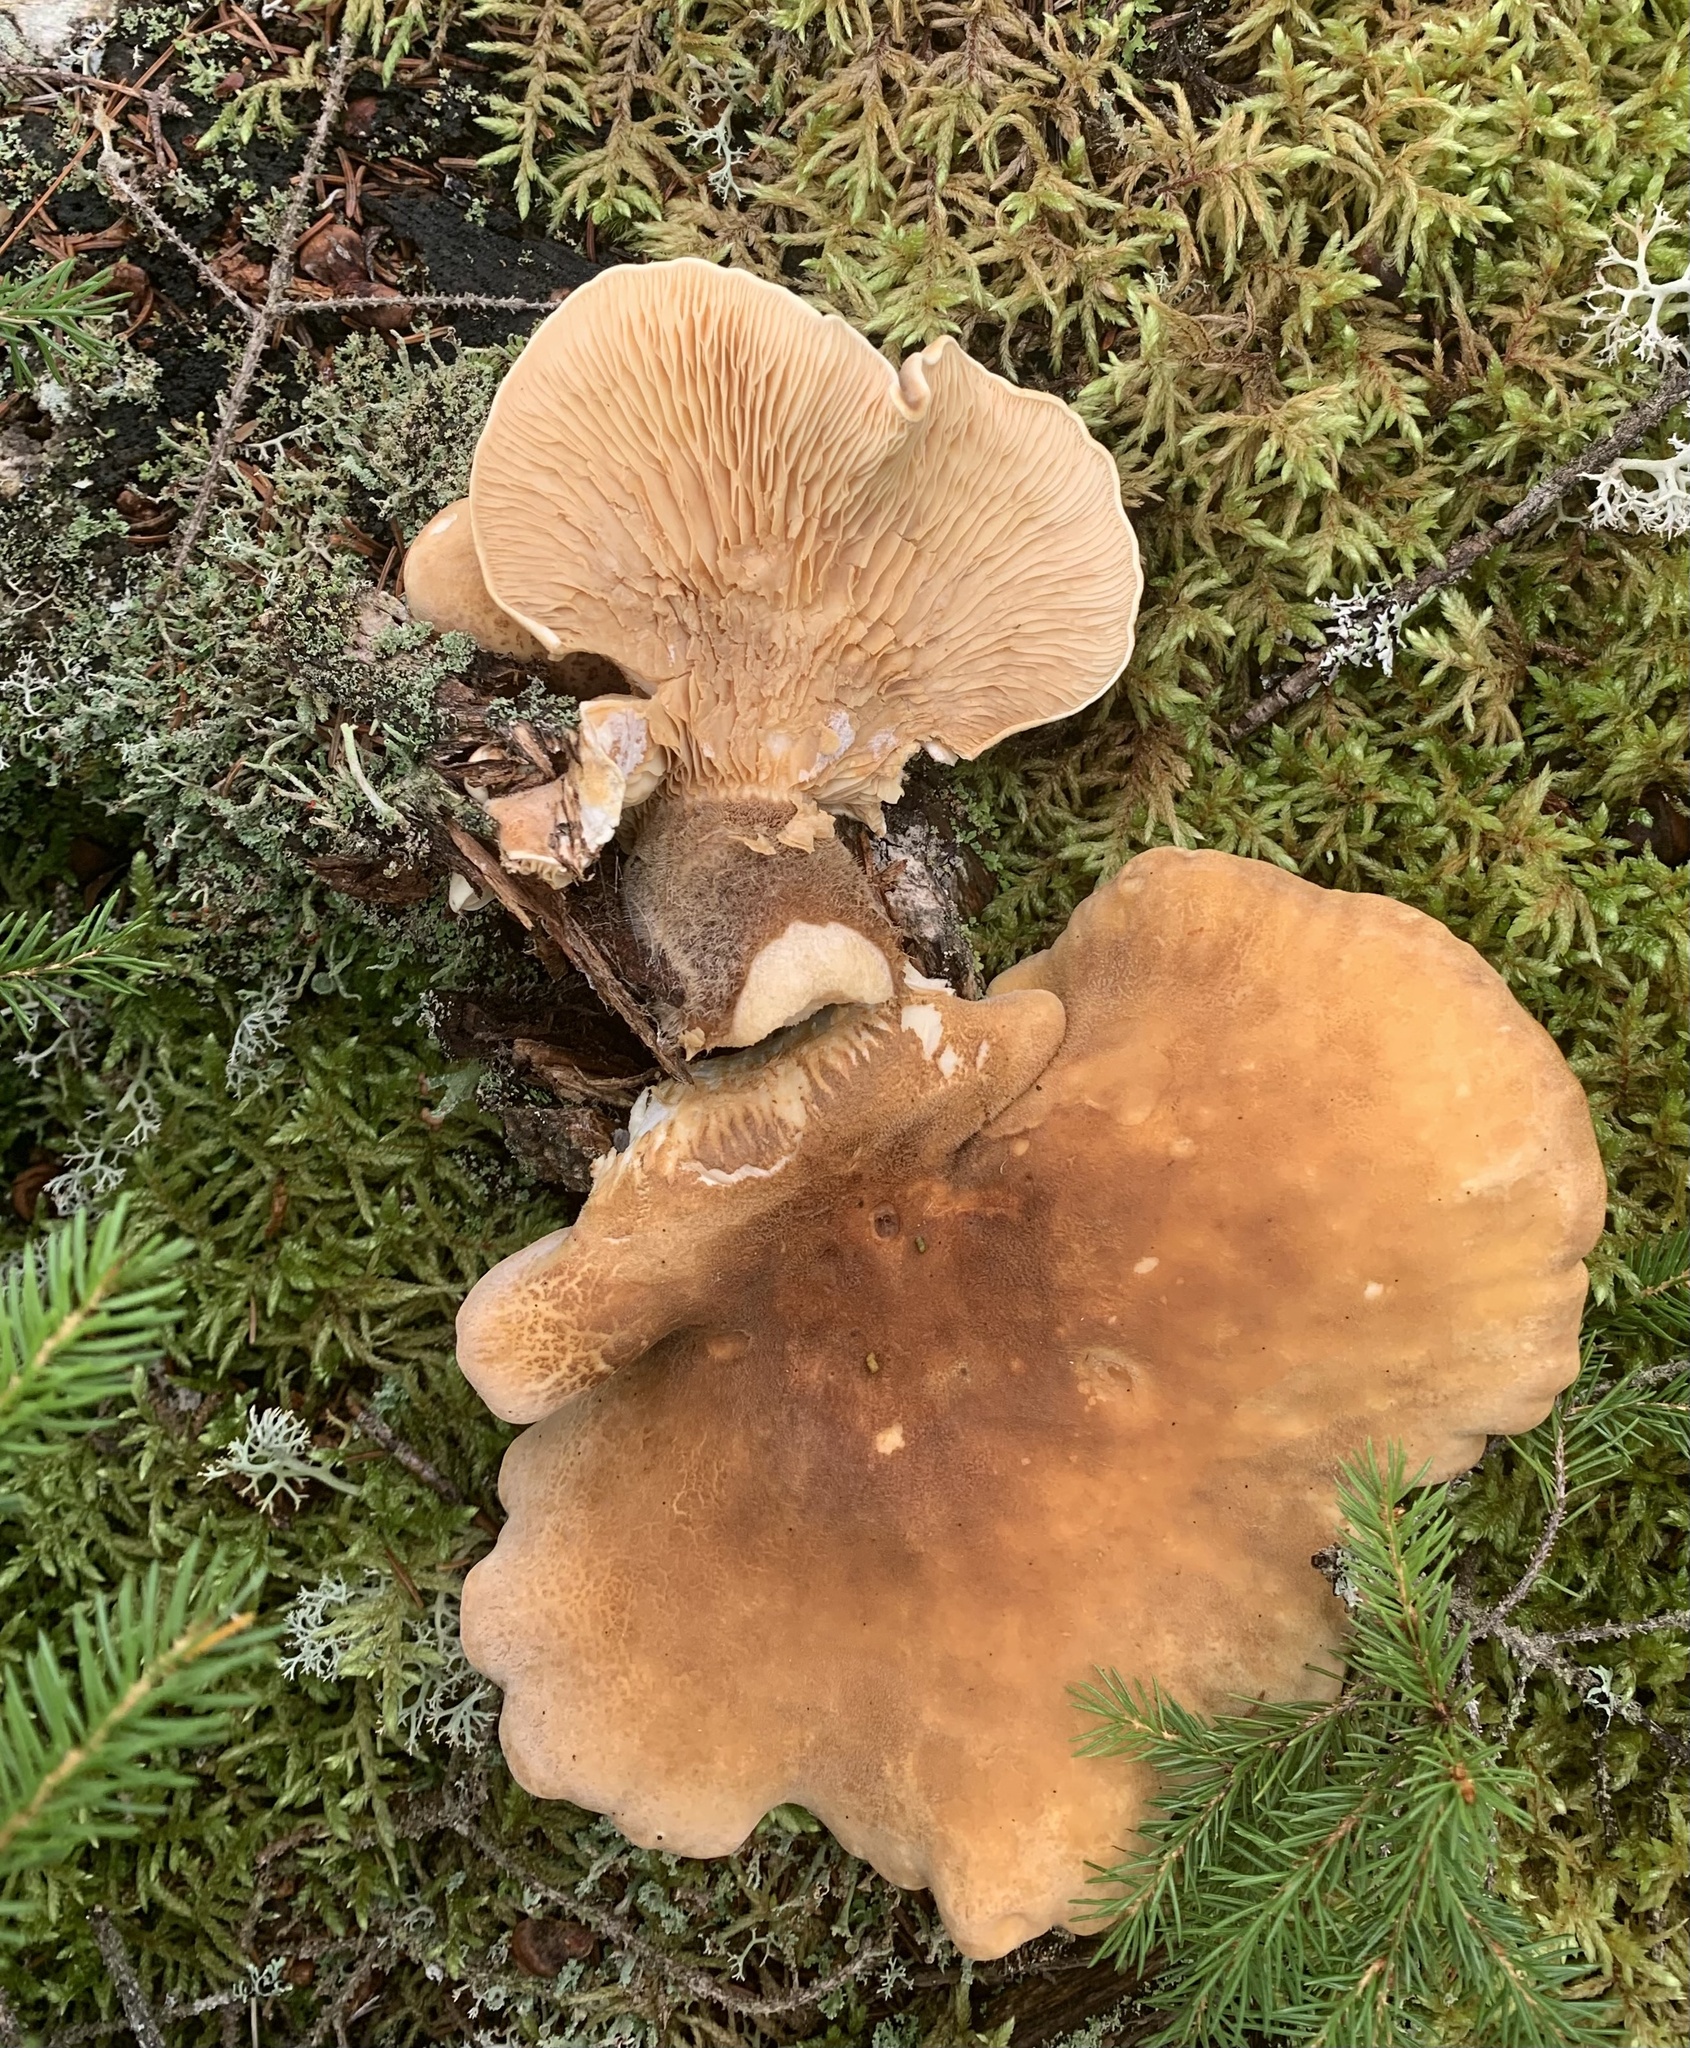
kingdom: Fungi
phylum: Basidiomycota
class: Agaricomycetes
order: Boletales
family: Tapinellaceae
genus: Tapinella
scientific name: Tapinella atrotomentosa
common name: Velvet rollrim
